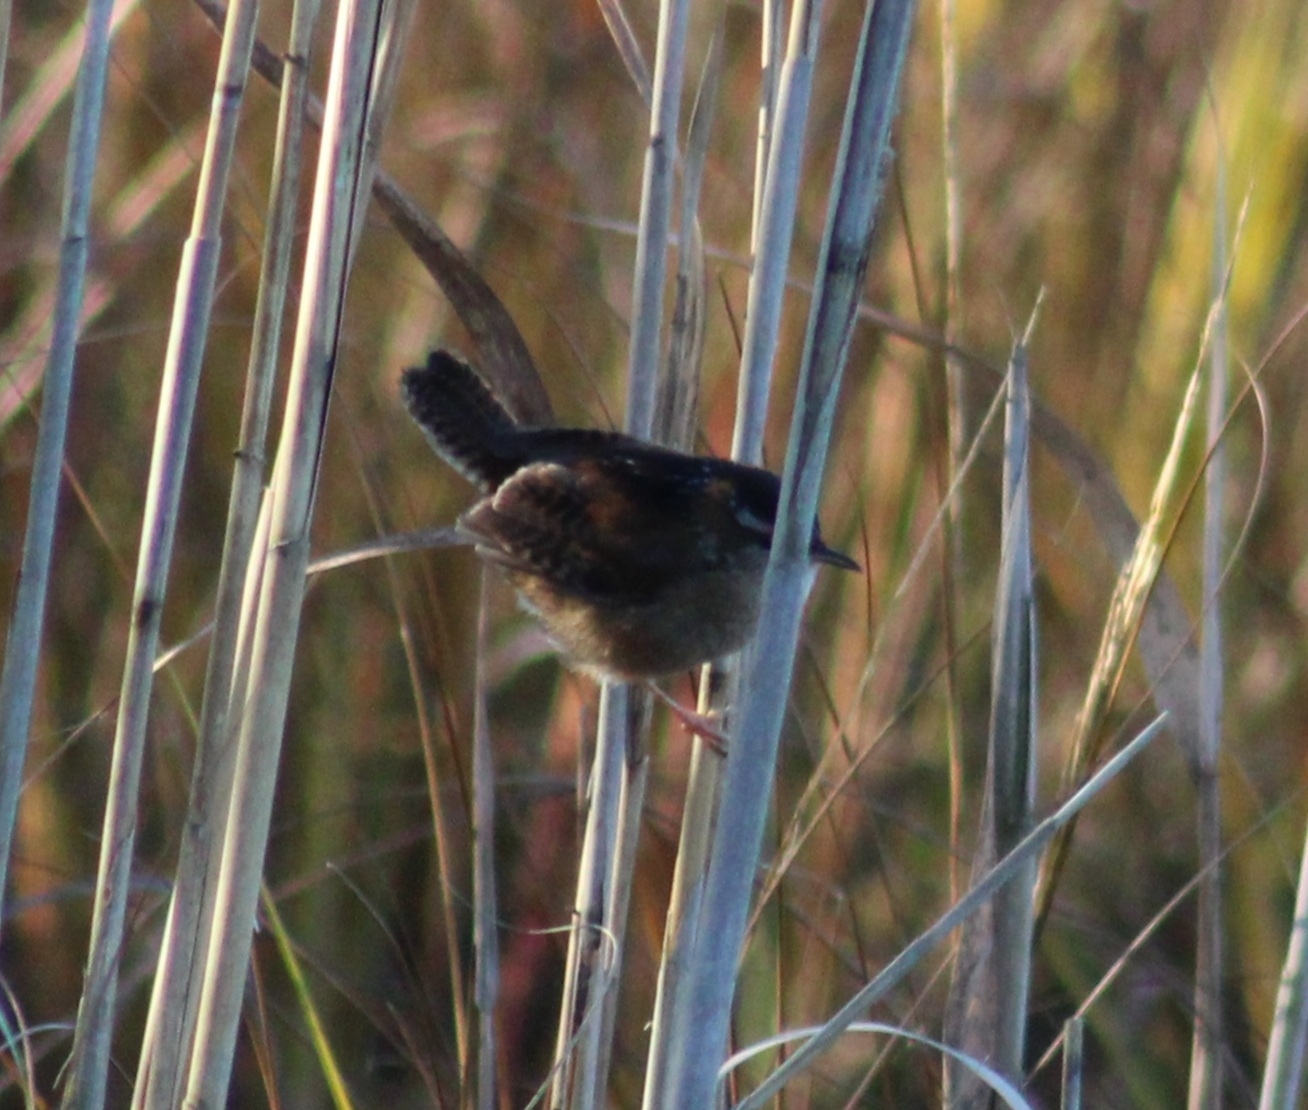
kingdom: Animalia
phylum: Chordata
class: Aves
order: Passeriformes
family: Troglodytidae
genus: Cistothorus
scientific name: Cistothorus palustris
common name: Marsh wren
